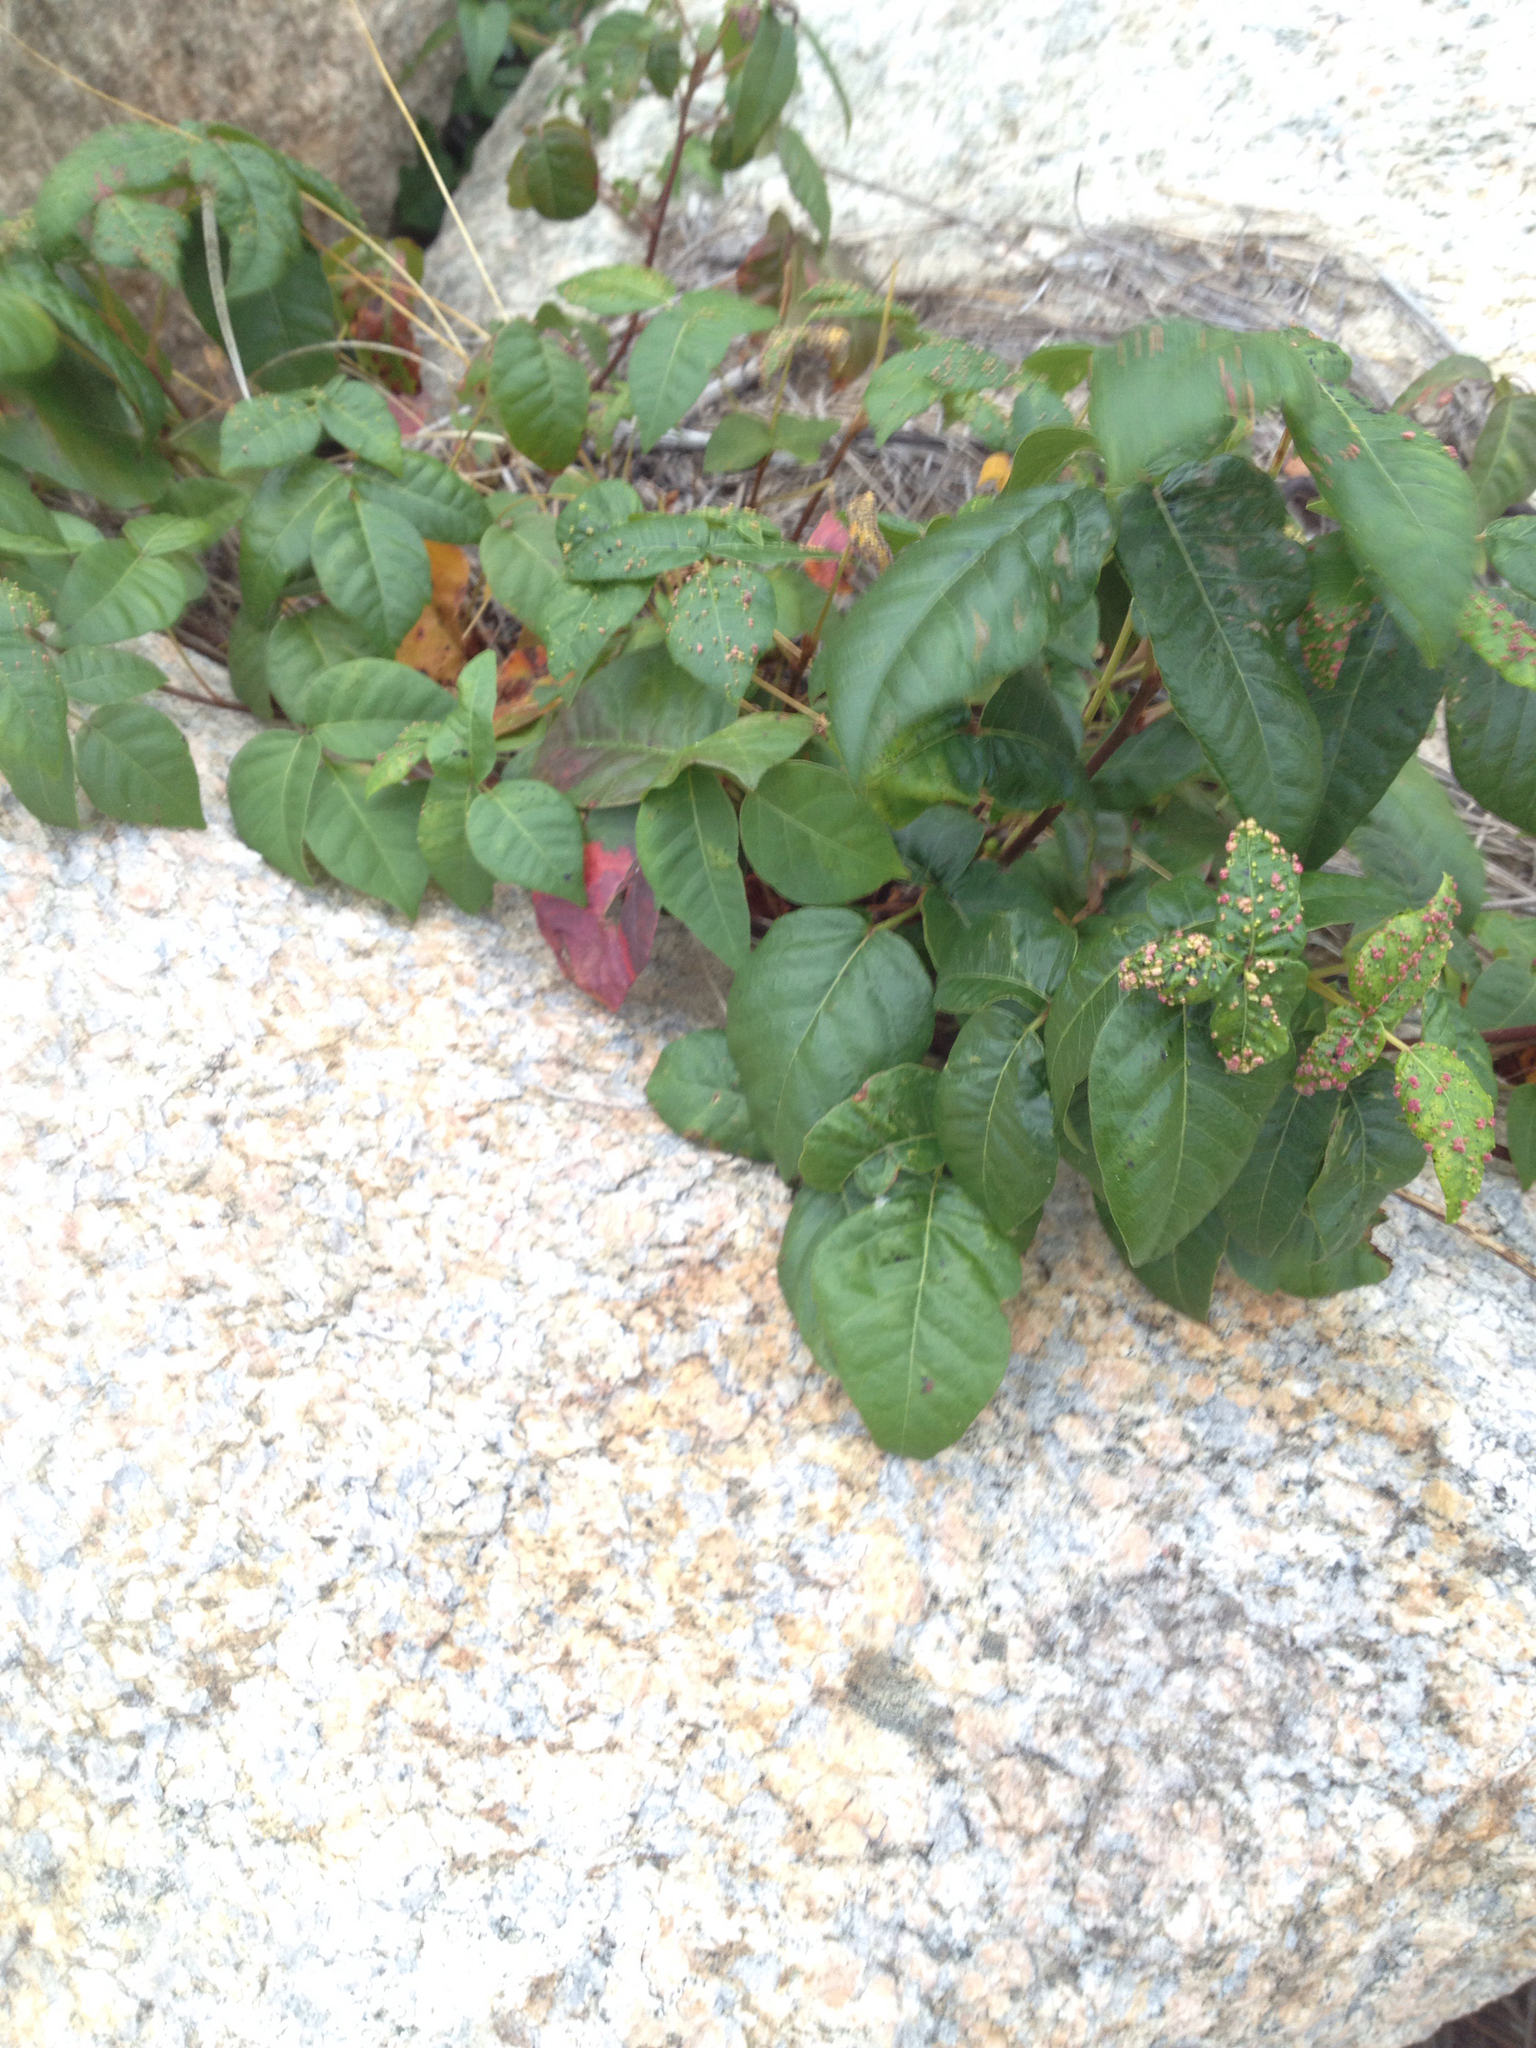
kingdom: Plantae
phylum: Tracheophyta
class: Magnoliopsida
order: Sapindales
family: Anacardiaceae
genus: Toxicodendron
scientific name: Toxicodendron radicans
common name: Poison ivy
